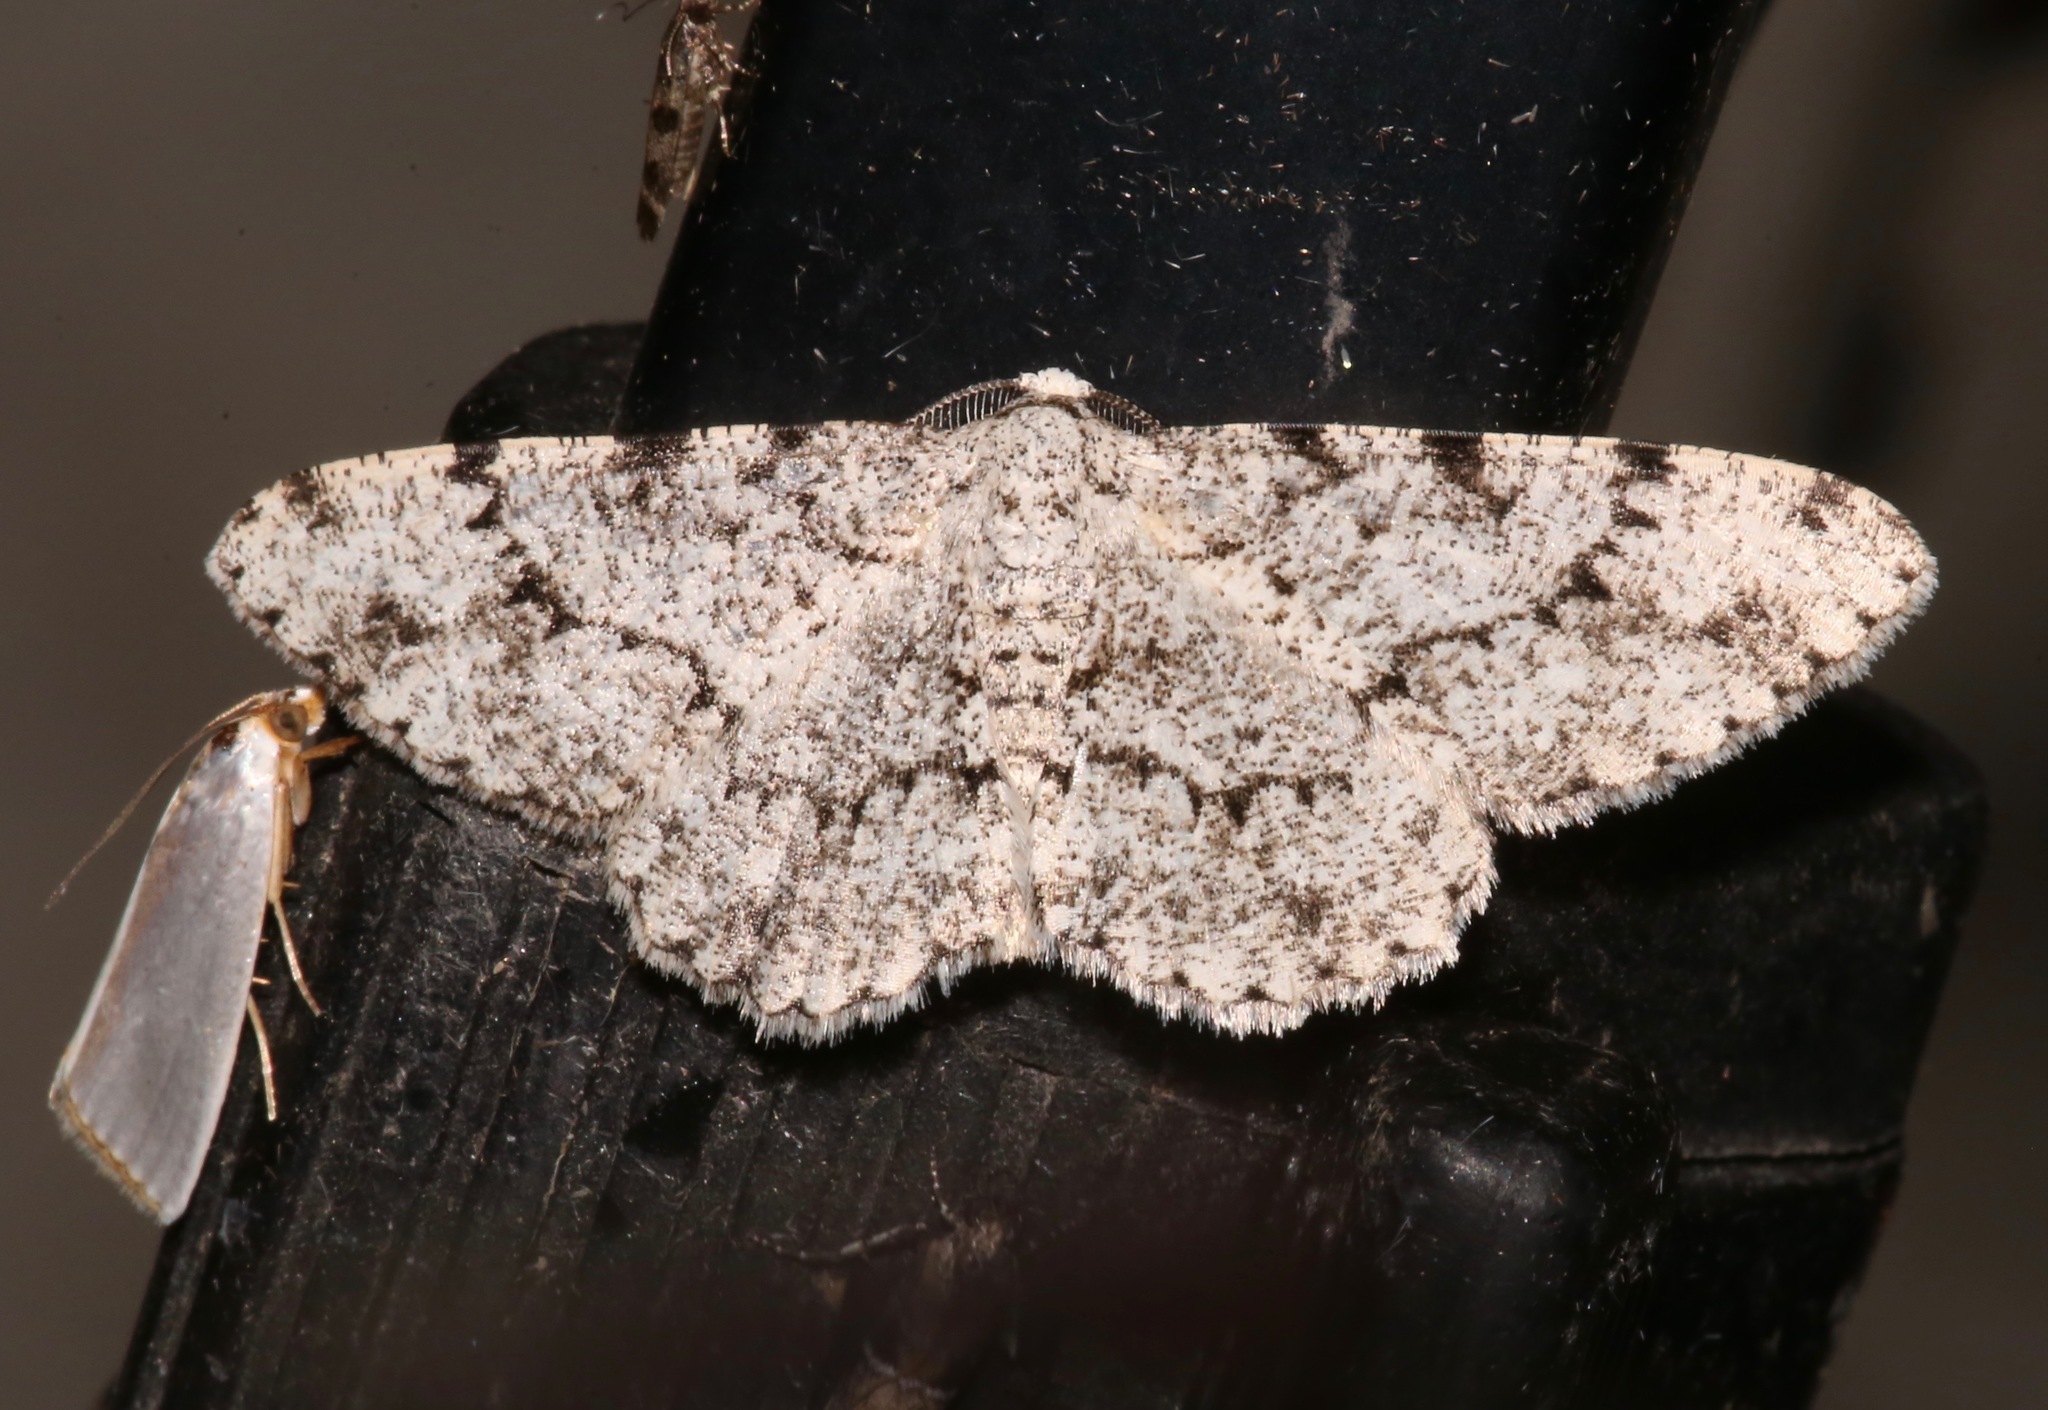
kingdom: Animalia
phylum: Arthropoda
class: Insecta
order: Lepidoptera
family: Geometridae
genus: Glena
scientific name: Glena grisearia
